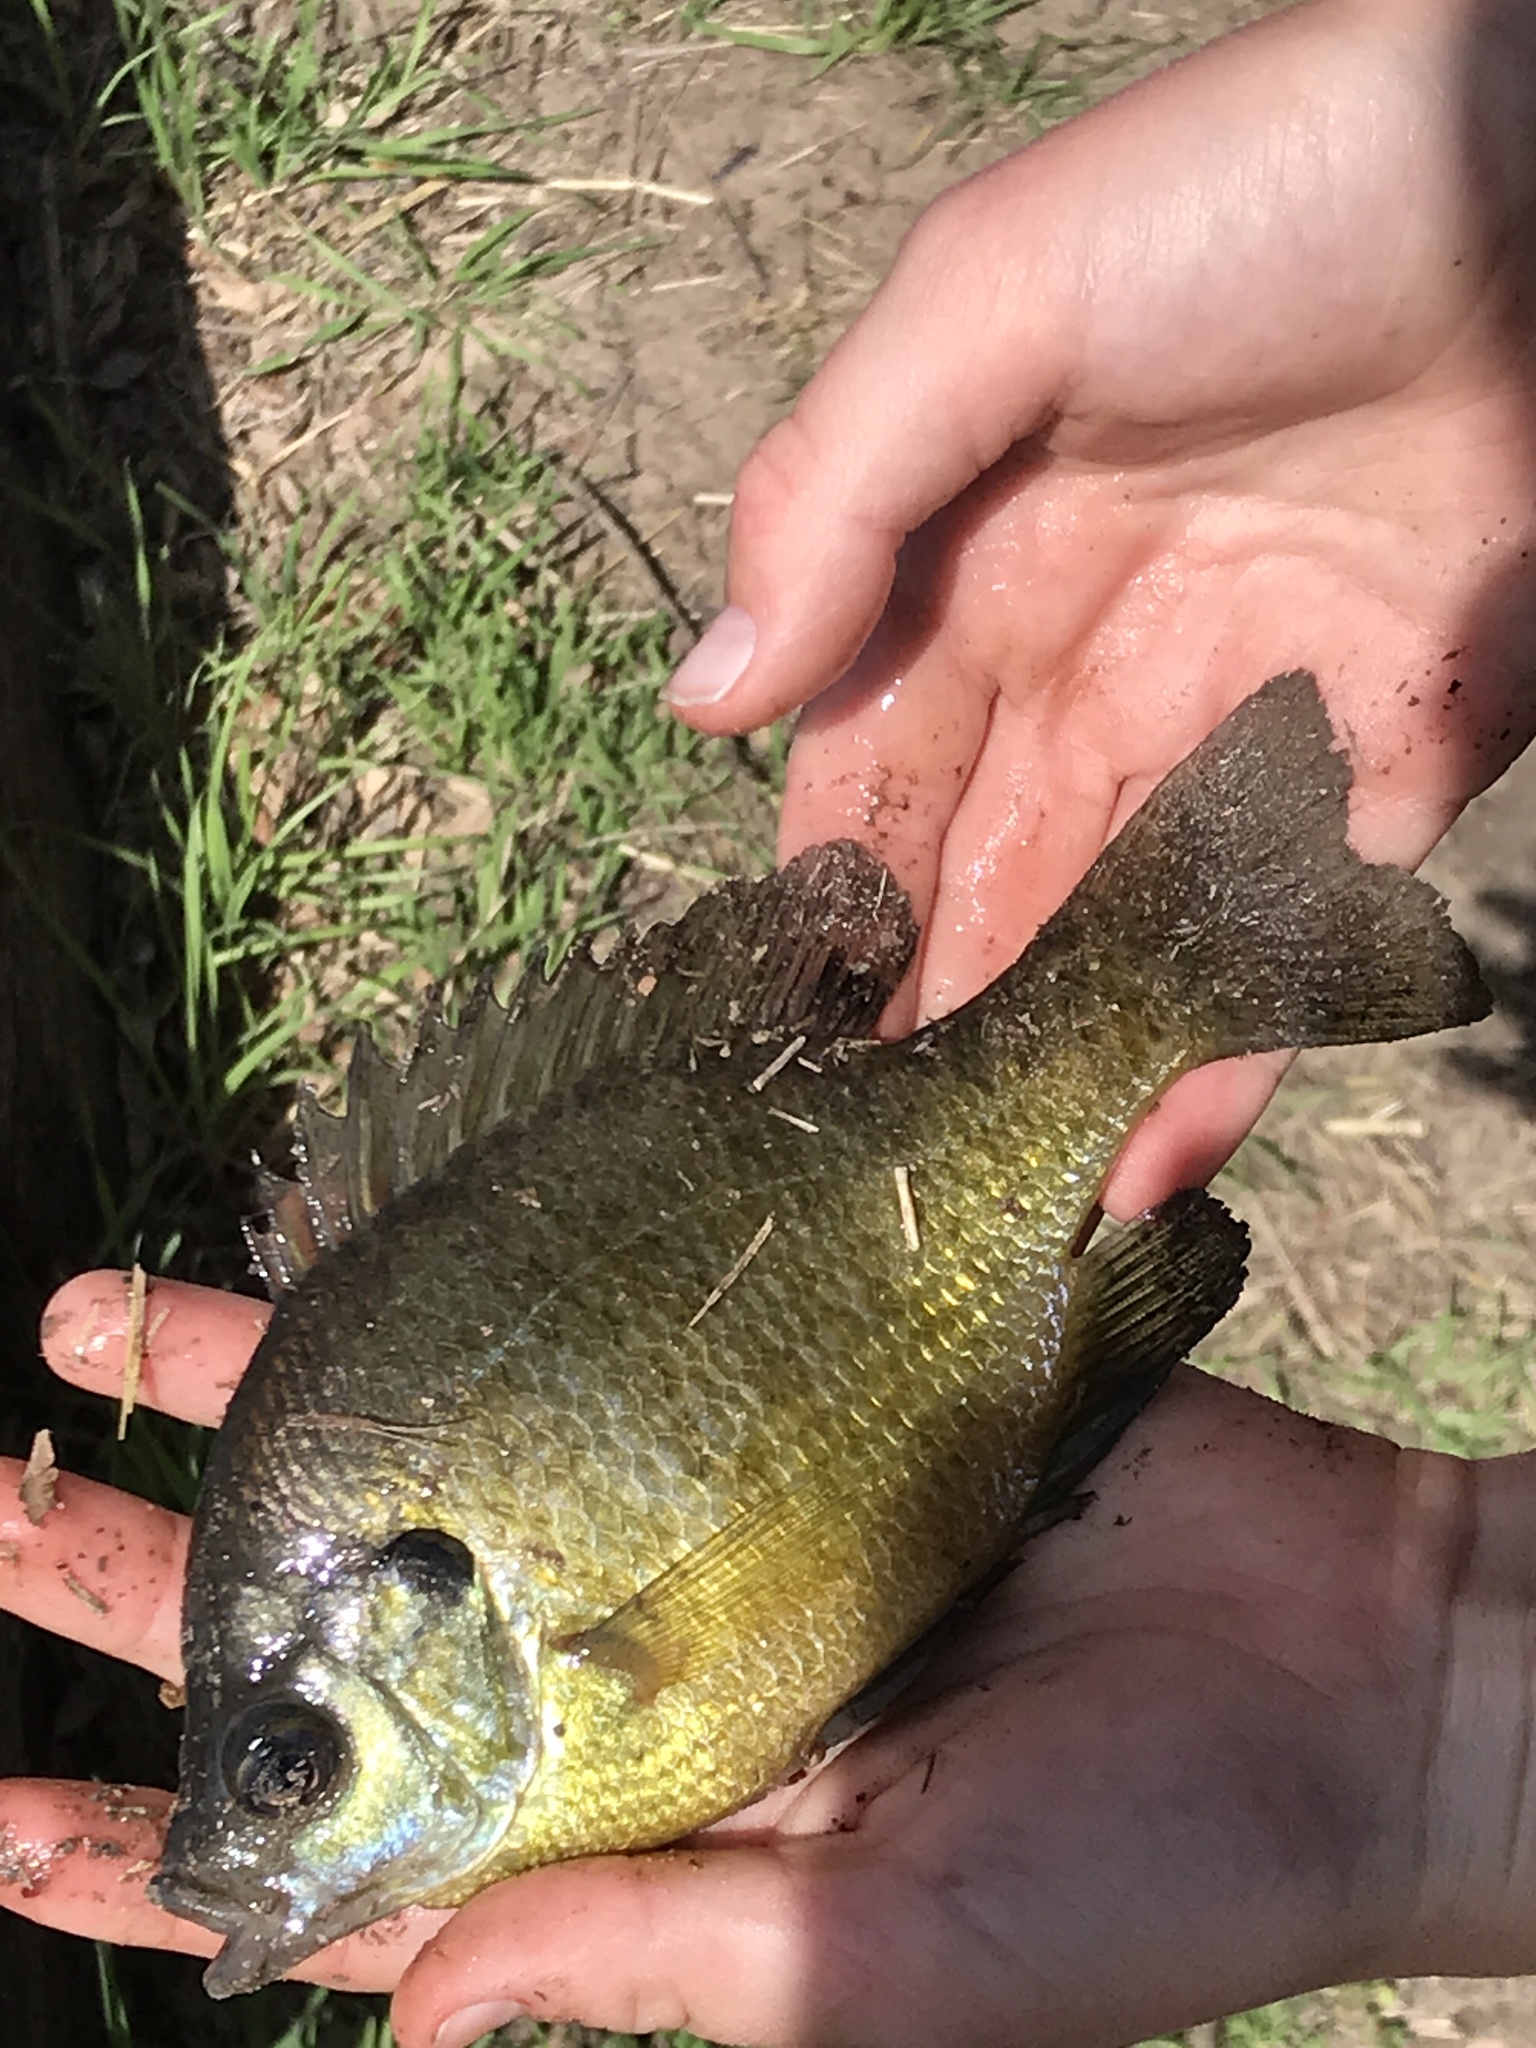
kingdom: Animalia
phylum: Chordata
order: Perciformes
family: Centrarchidae
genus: Lepomis
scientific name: Lepomis macrochirus
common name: Bluegill
